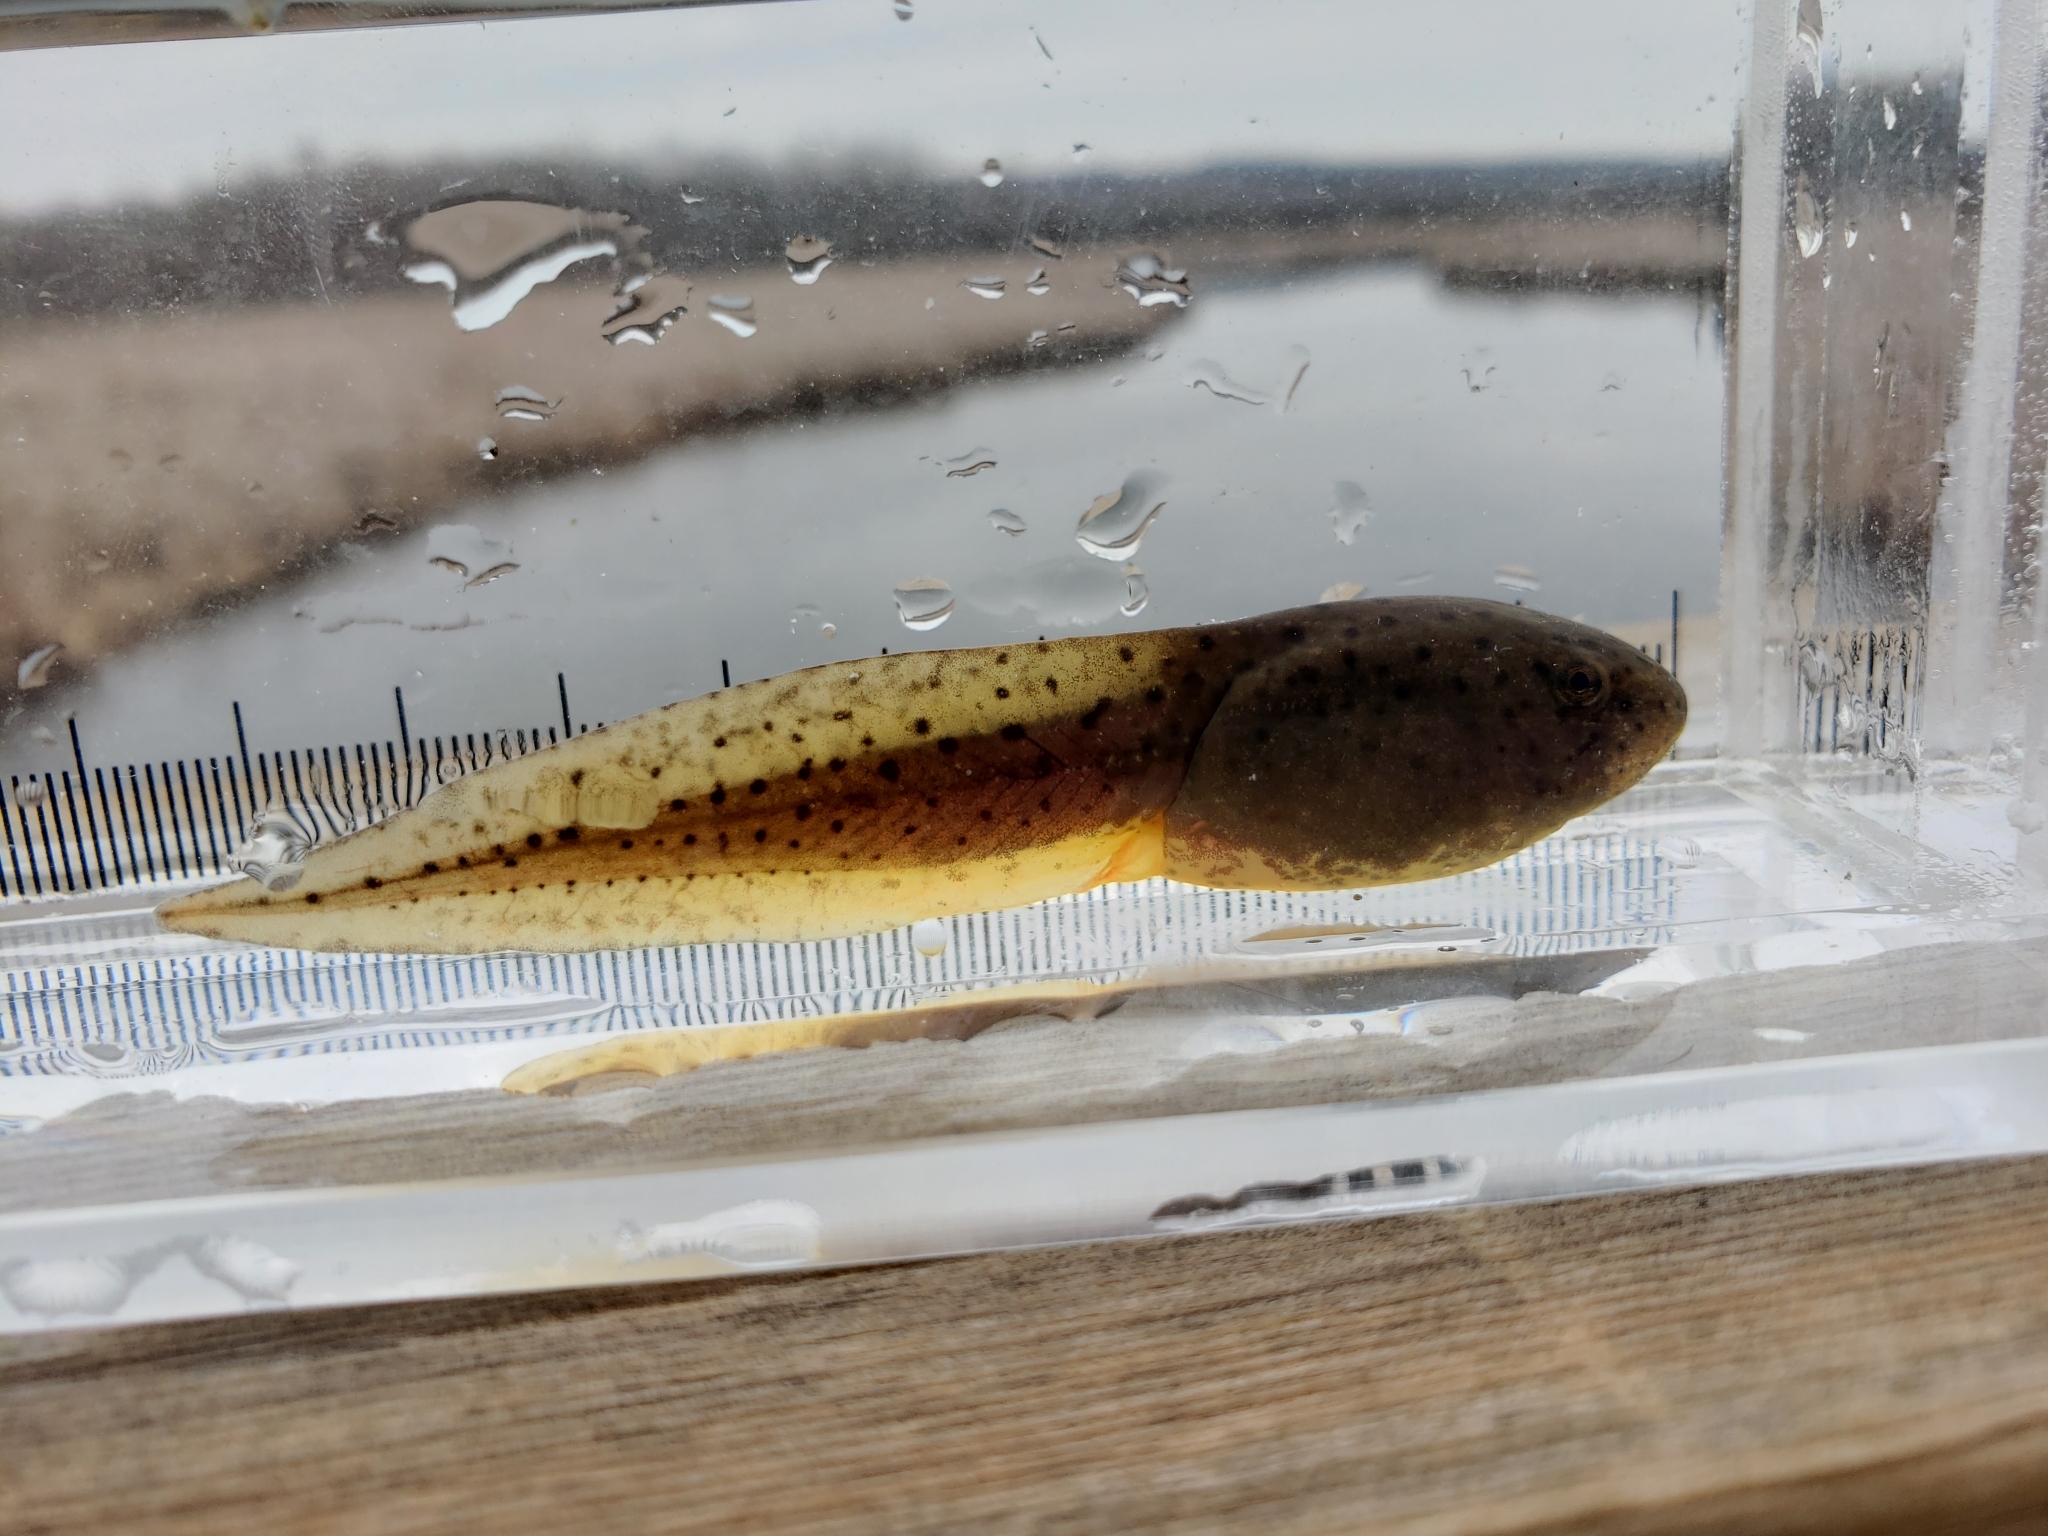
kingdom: Animalia
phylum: Chordata
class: Amphibia
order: Anura
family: Ranidae
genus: Lithobates
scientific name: Lithobates catesbeianus
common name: American bullfrog
